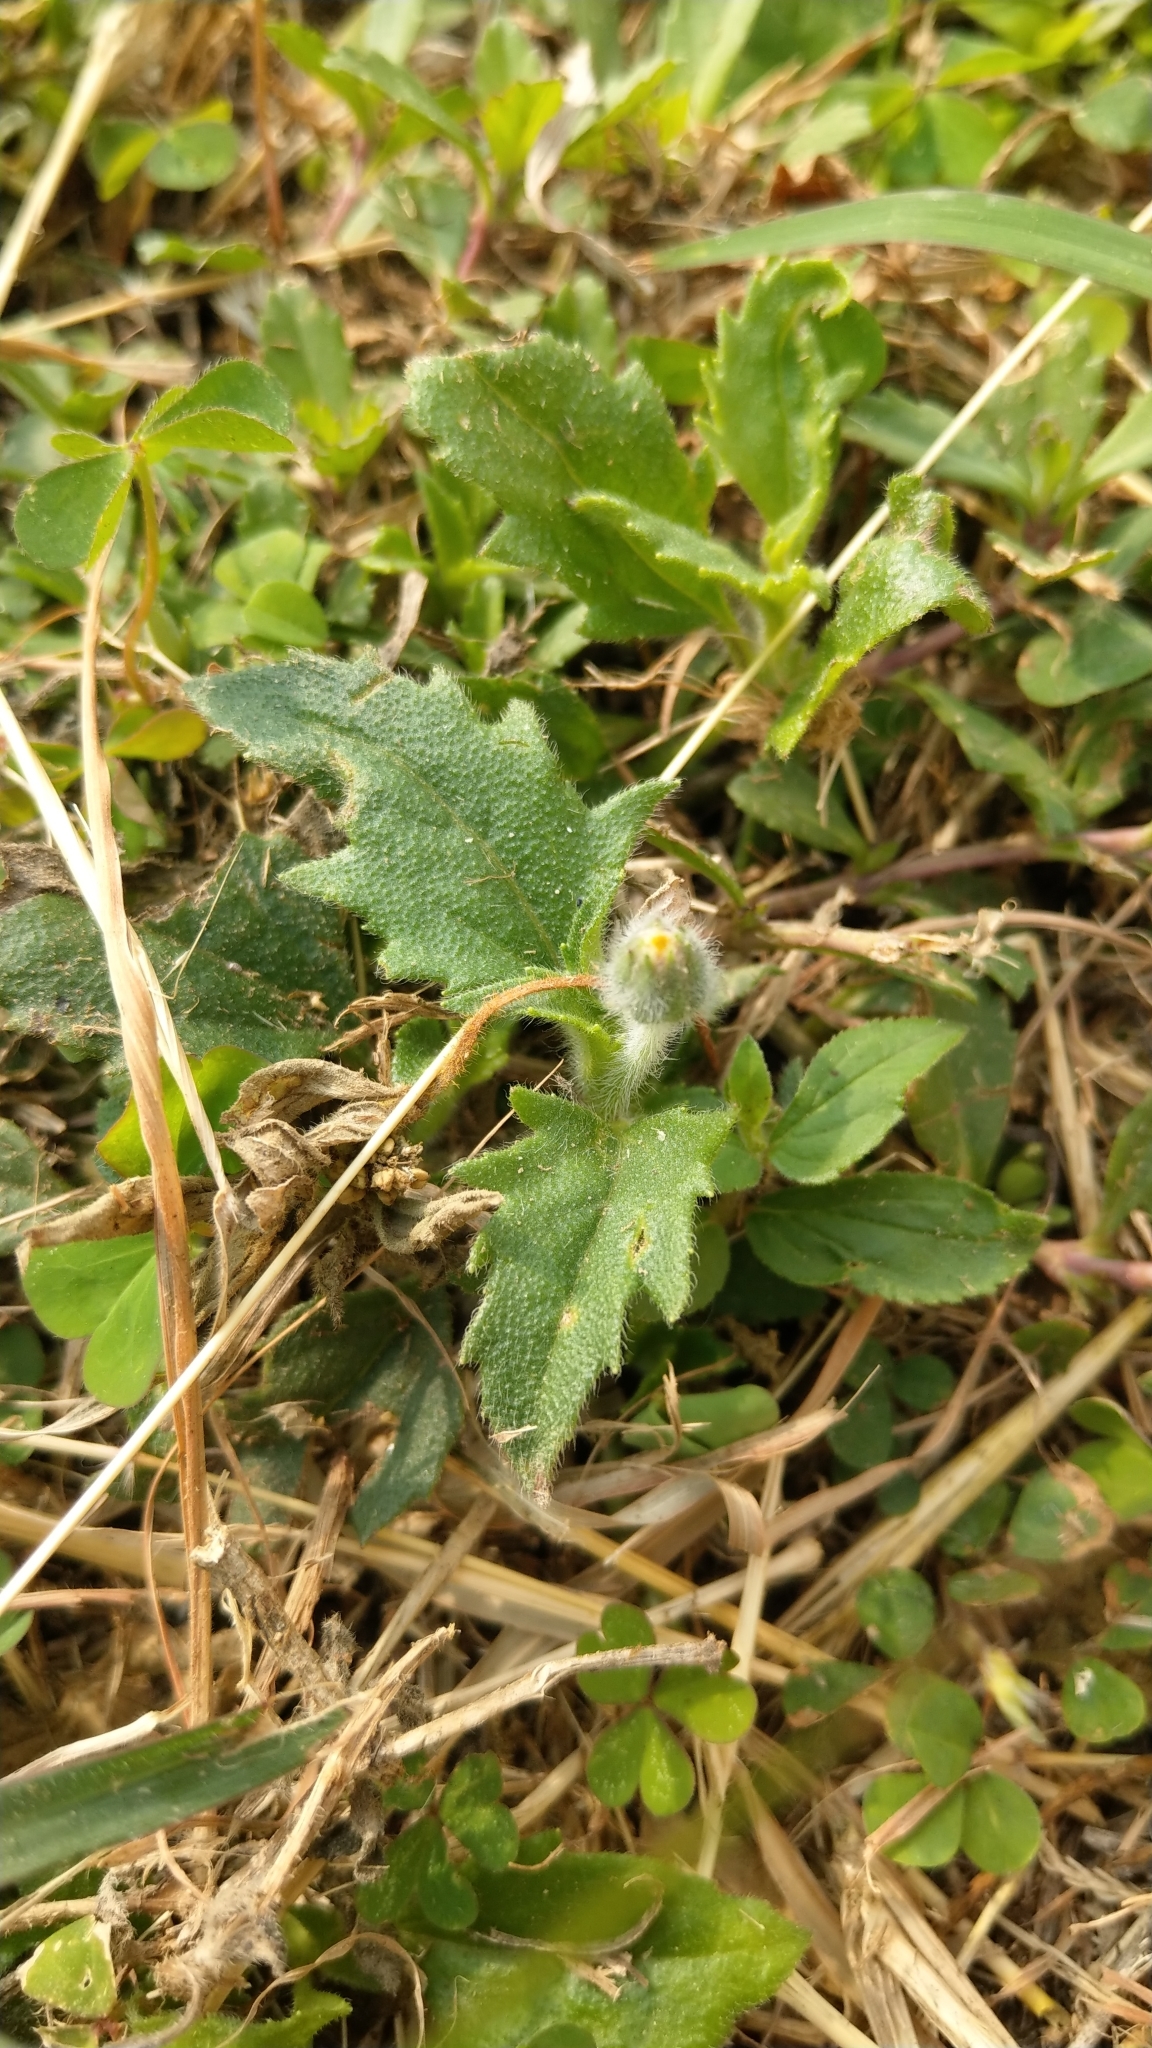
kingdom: Plantae
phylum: Tracheophyta
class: Magnoliopsida
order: Asterales
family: Asteraceae
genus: Tridax
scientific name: Tridax procumbens
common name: Coatbuttons
